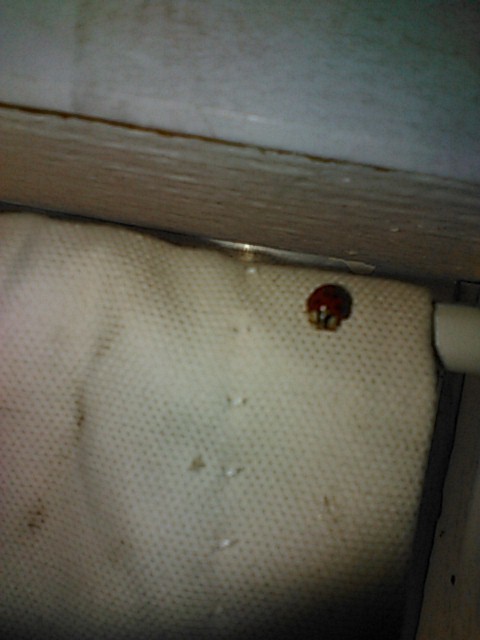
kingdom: Animalia
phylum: Arthropoda
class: Insecta
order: Coleoptera
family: Coccinellidae
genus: Harmonia
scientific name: Harmonia axyridis
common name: Harlequin ladybird
